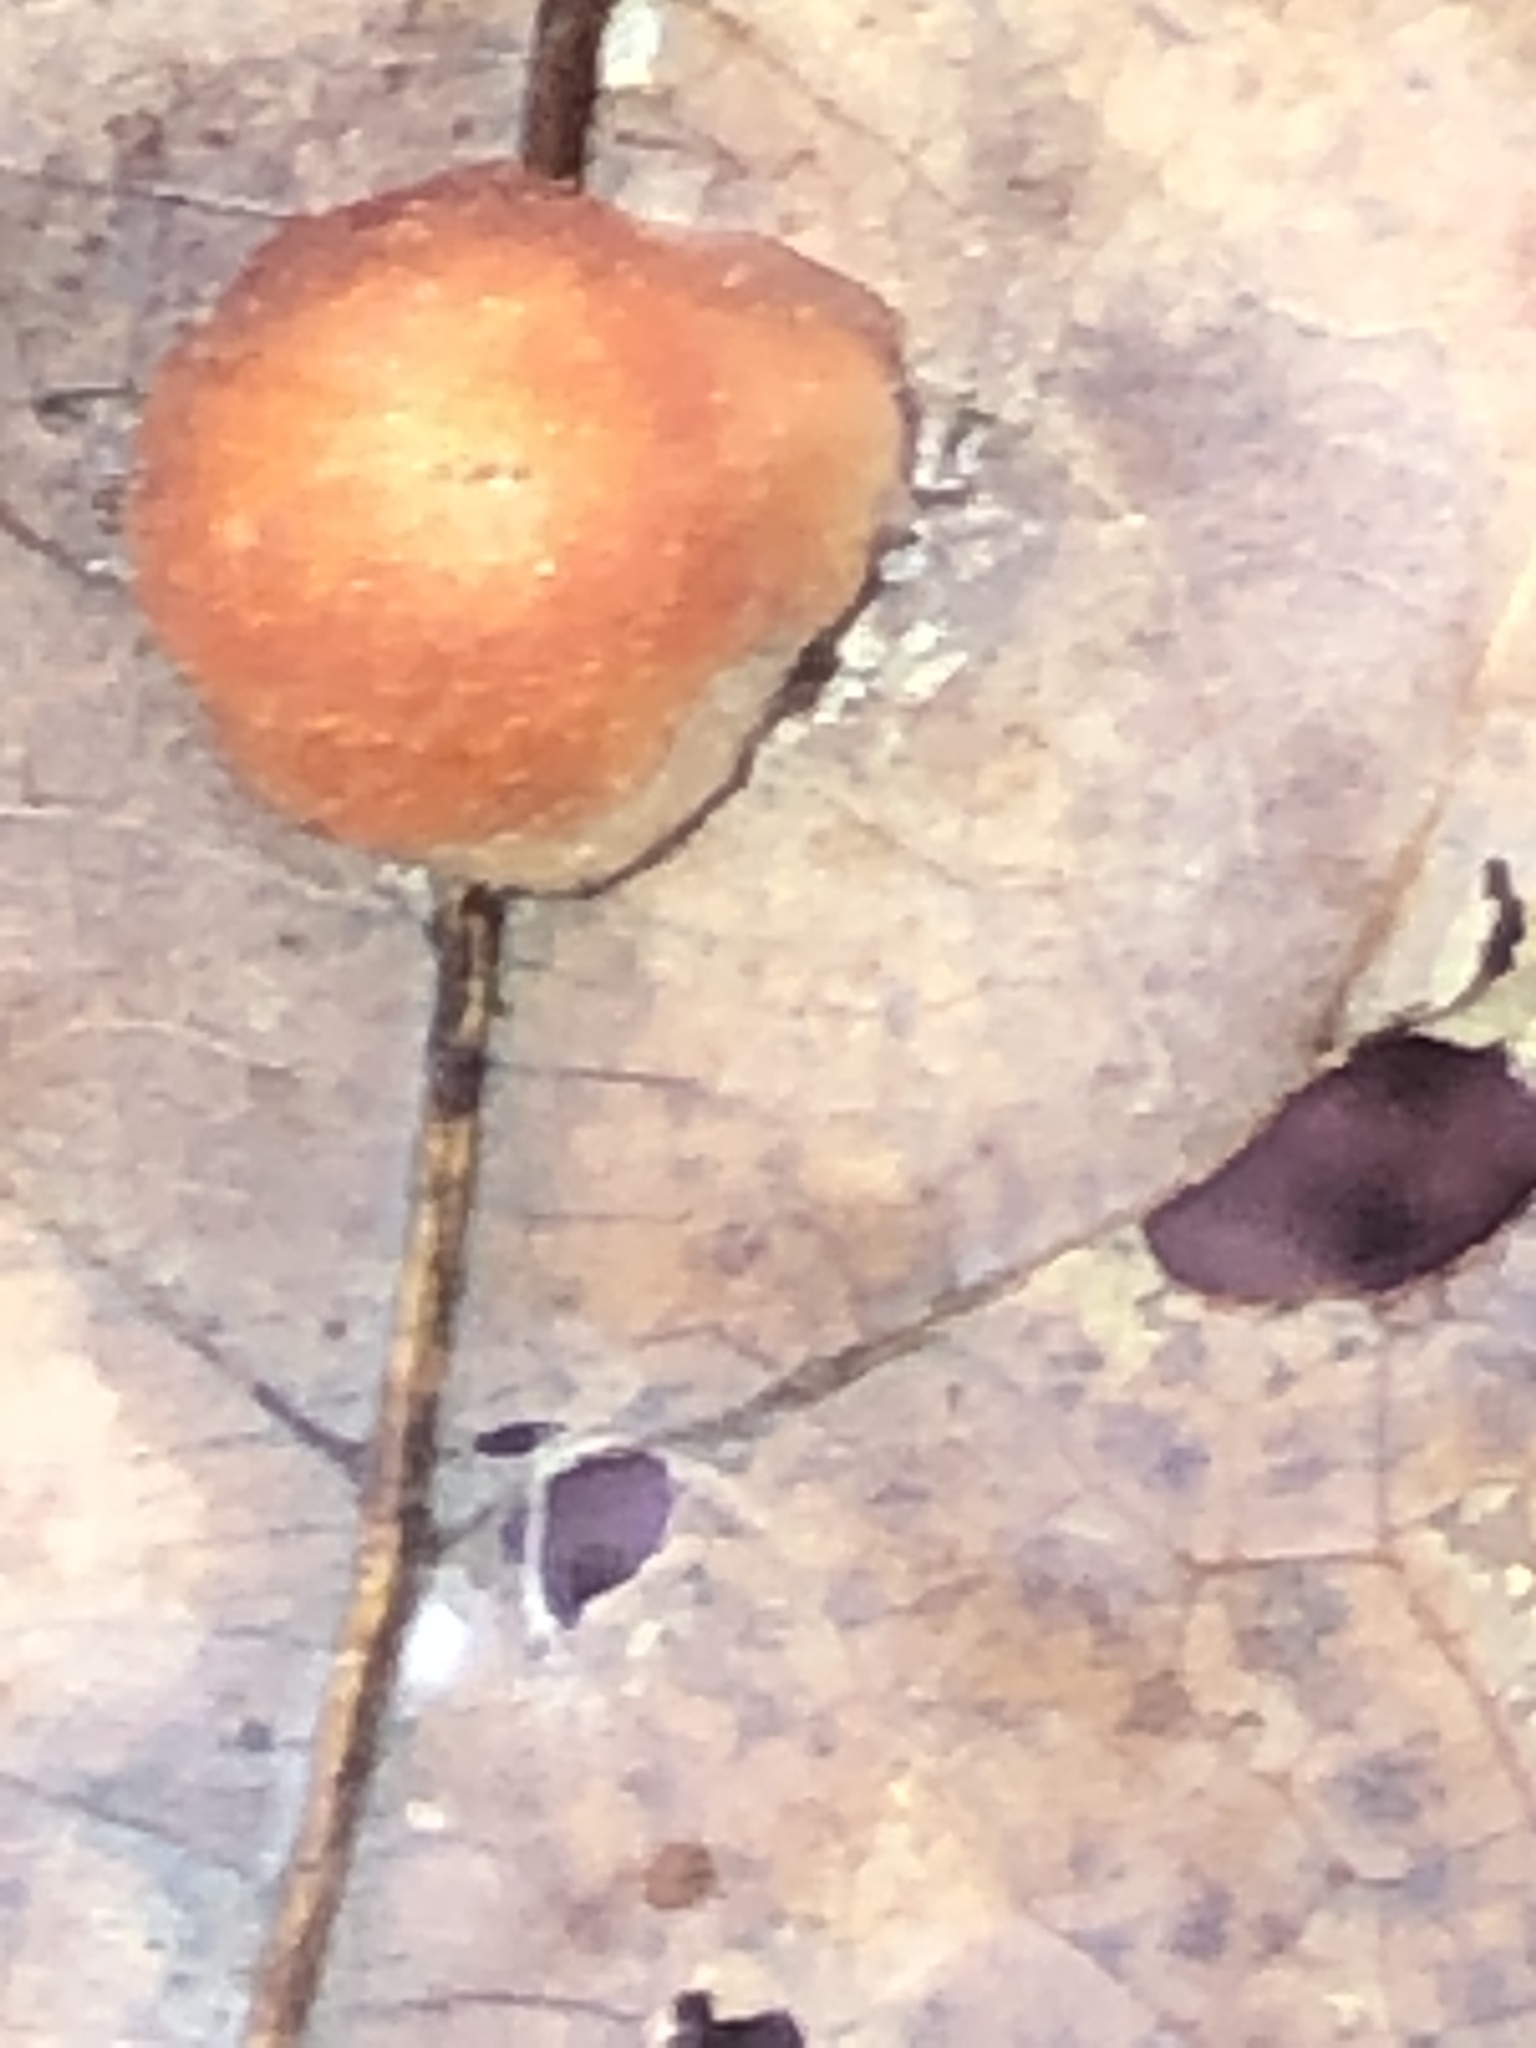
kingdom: Animalia
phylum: Arthropoda
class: Insecta
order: Hymenoptera
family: Cynipidae
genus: Andricus
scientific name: Andricus quercusflocci
